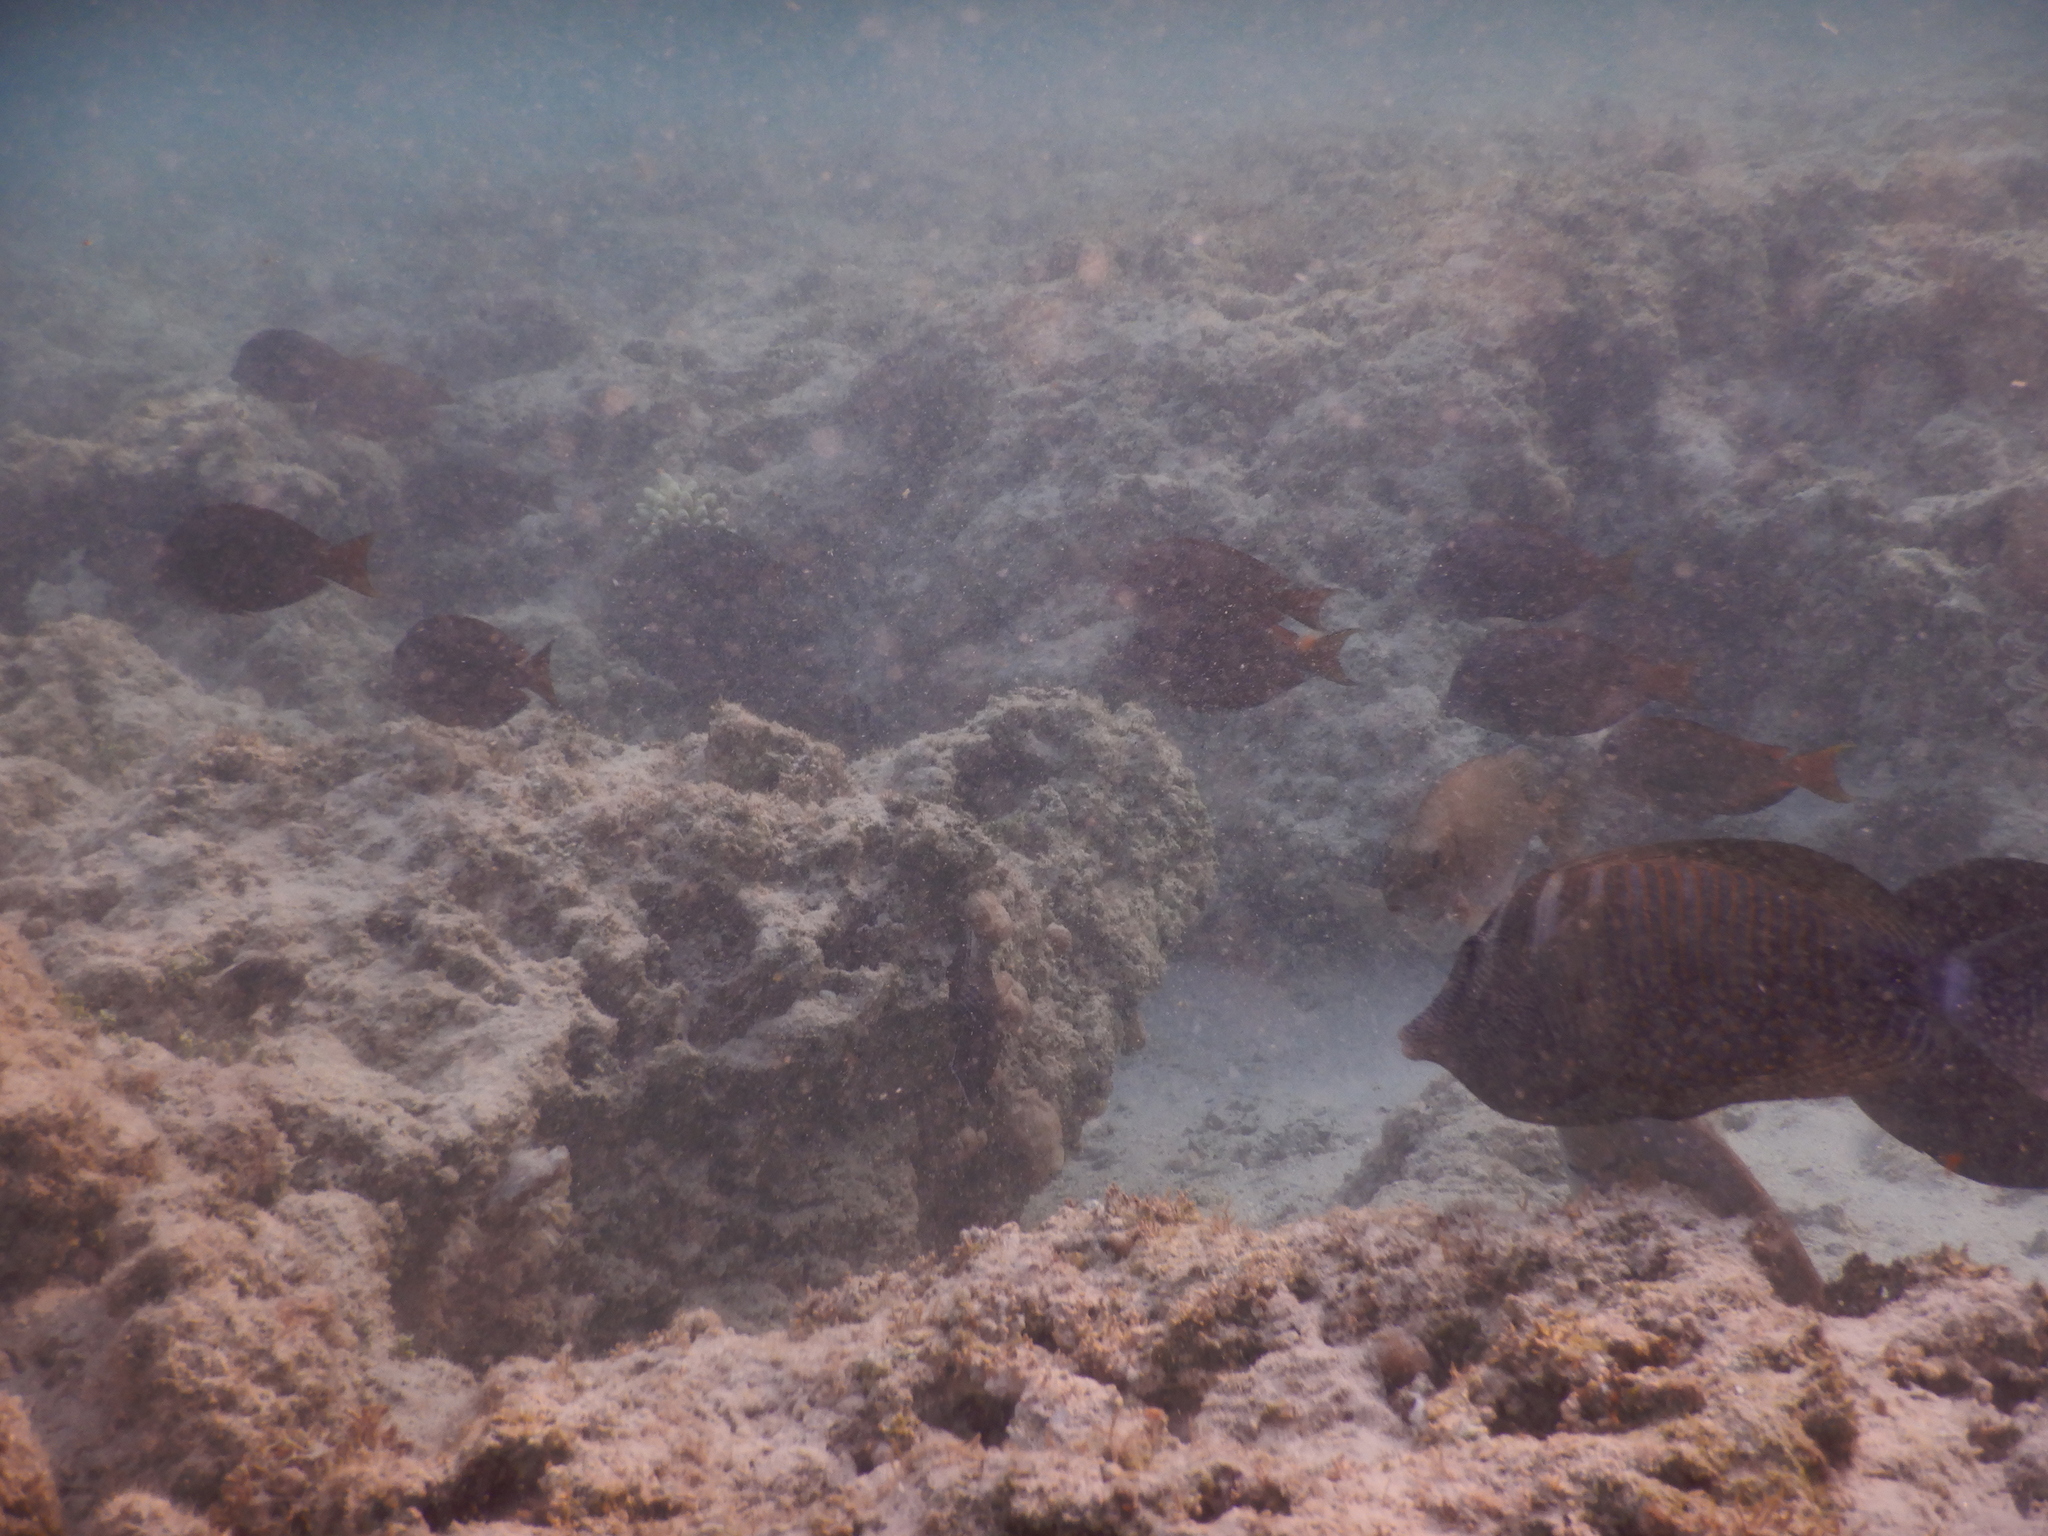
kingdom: Animalia
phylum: Chordata
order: Perciformes
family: Acanthuridae
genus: Zebrasoma
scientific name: Zebrasoma desjardinii
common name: Desjardin's sailfin tang
